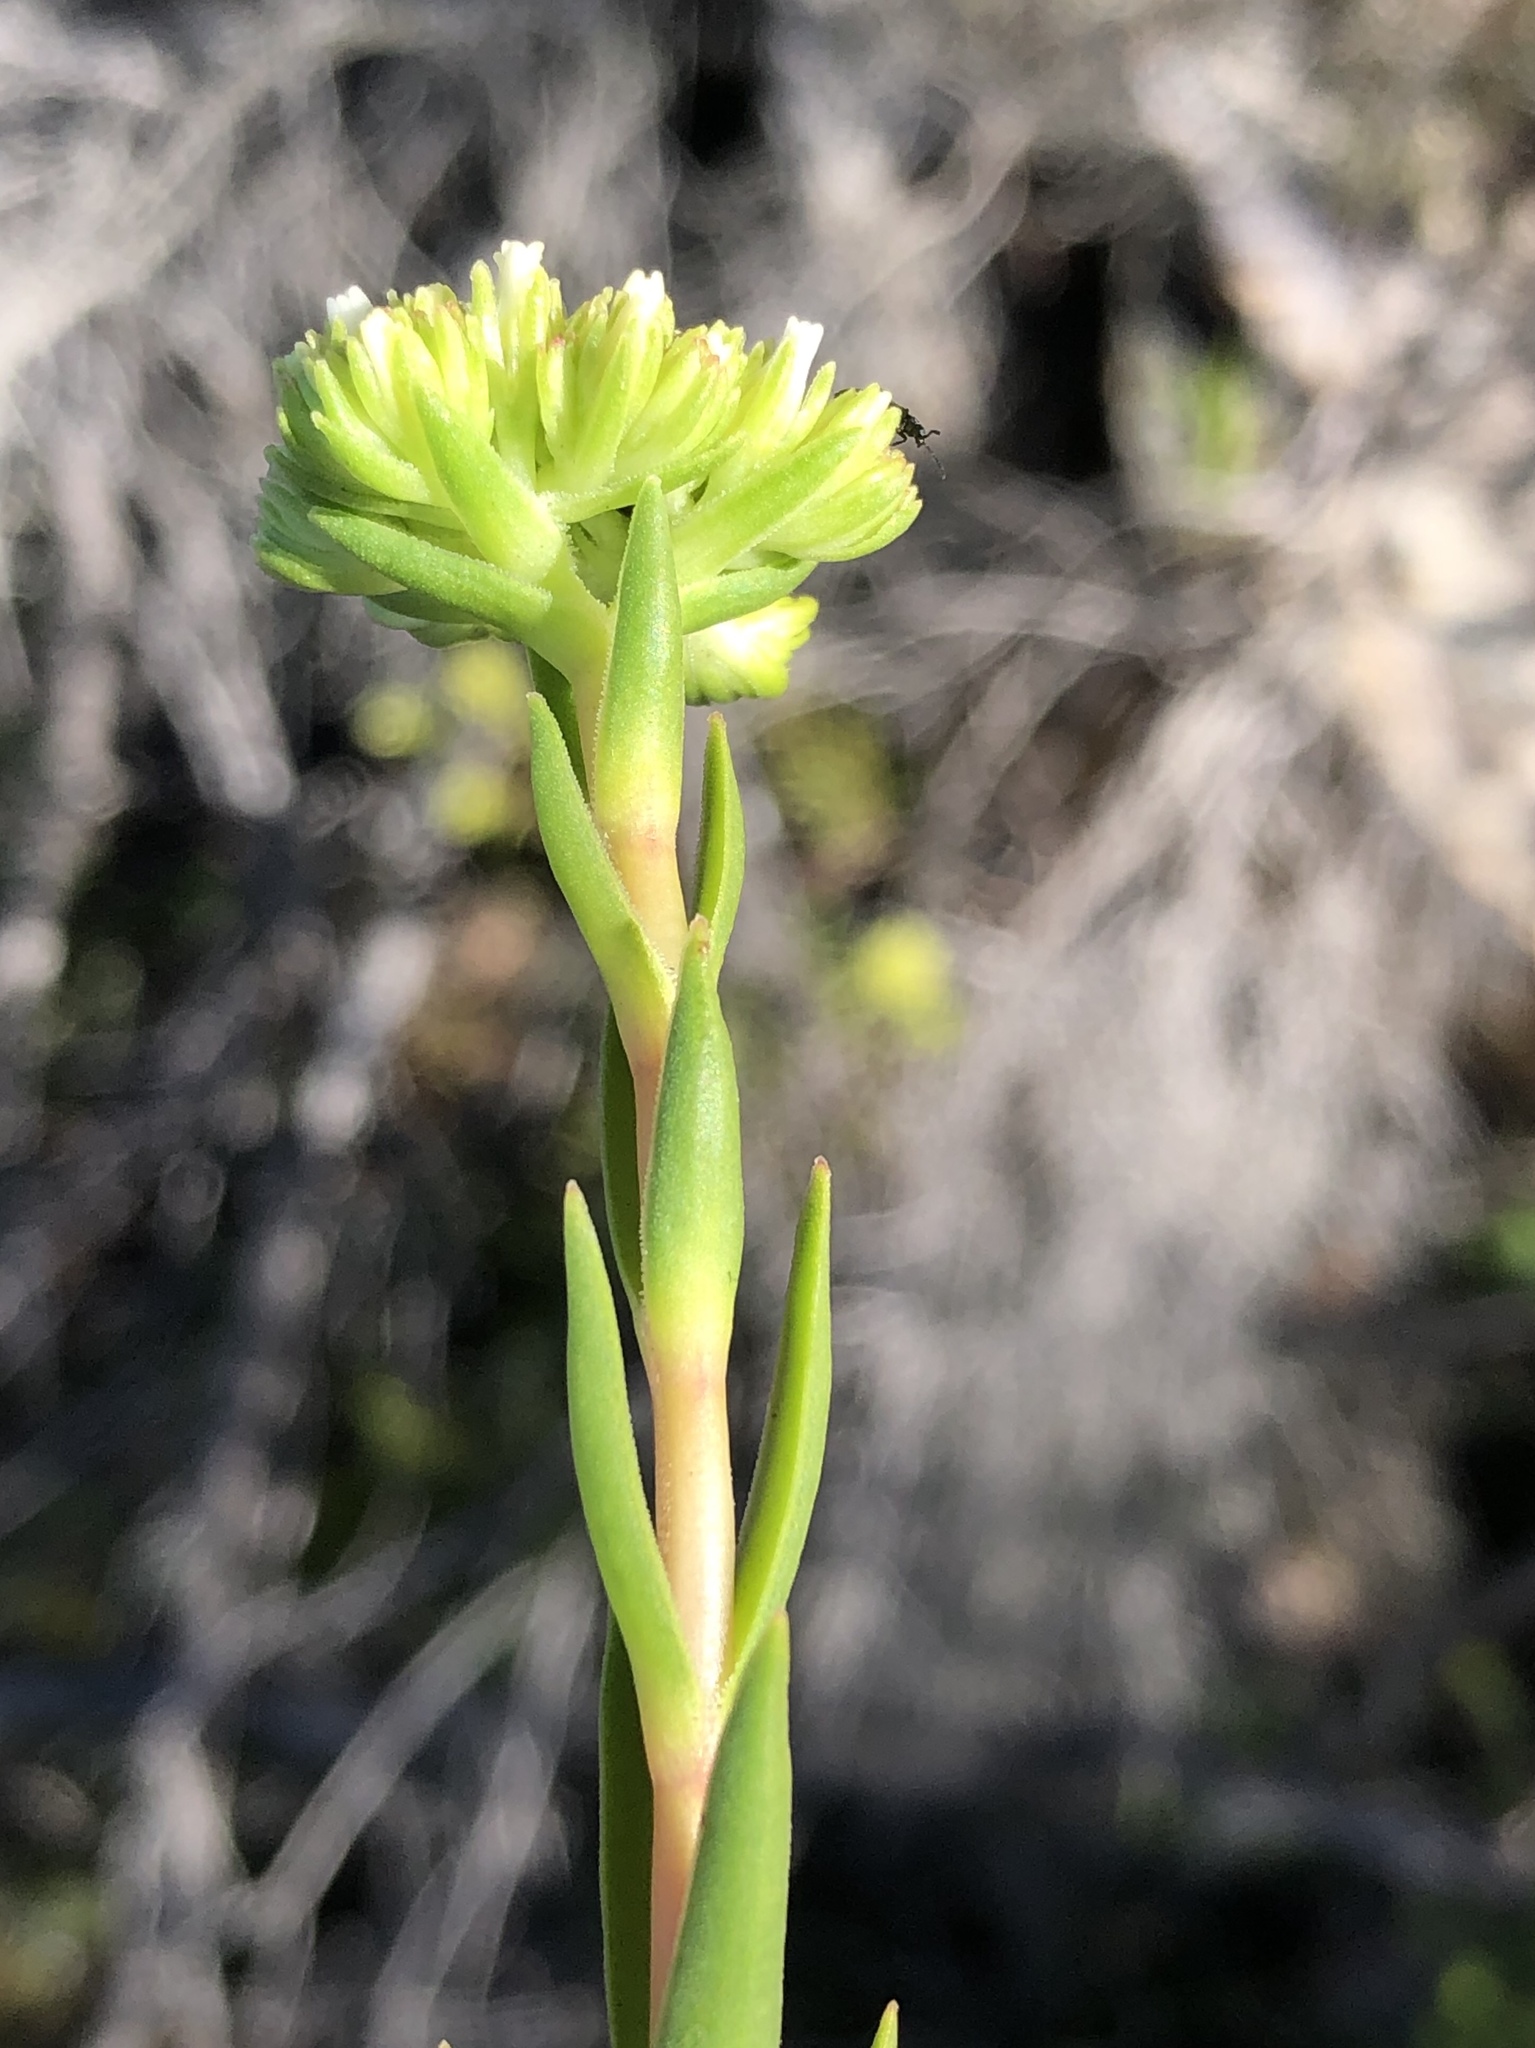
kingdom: Plantae
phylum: Tracheophyta
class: Magnoliopsida
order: Saxifragales
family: Crassulaceae
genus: Crassula
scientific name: Crassula subulata
